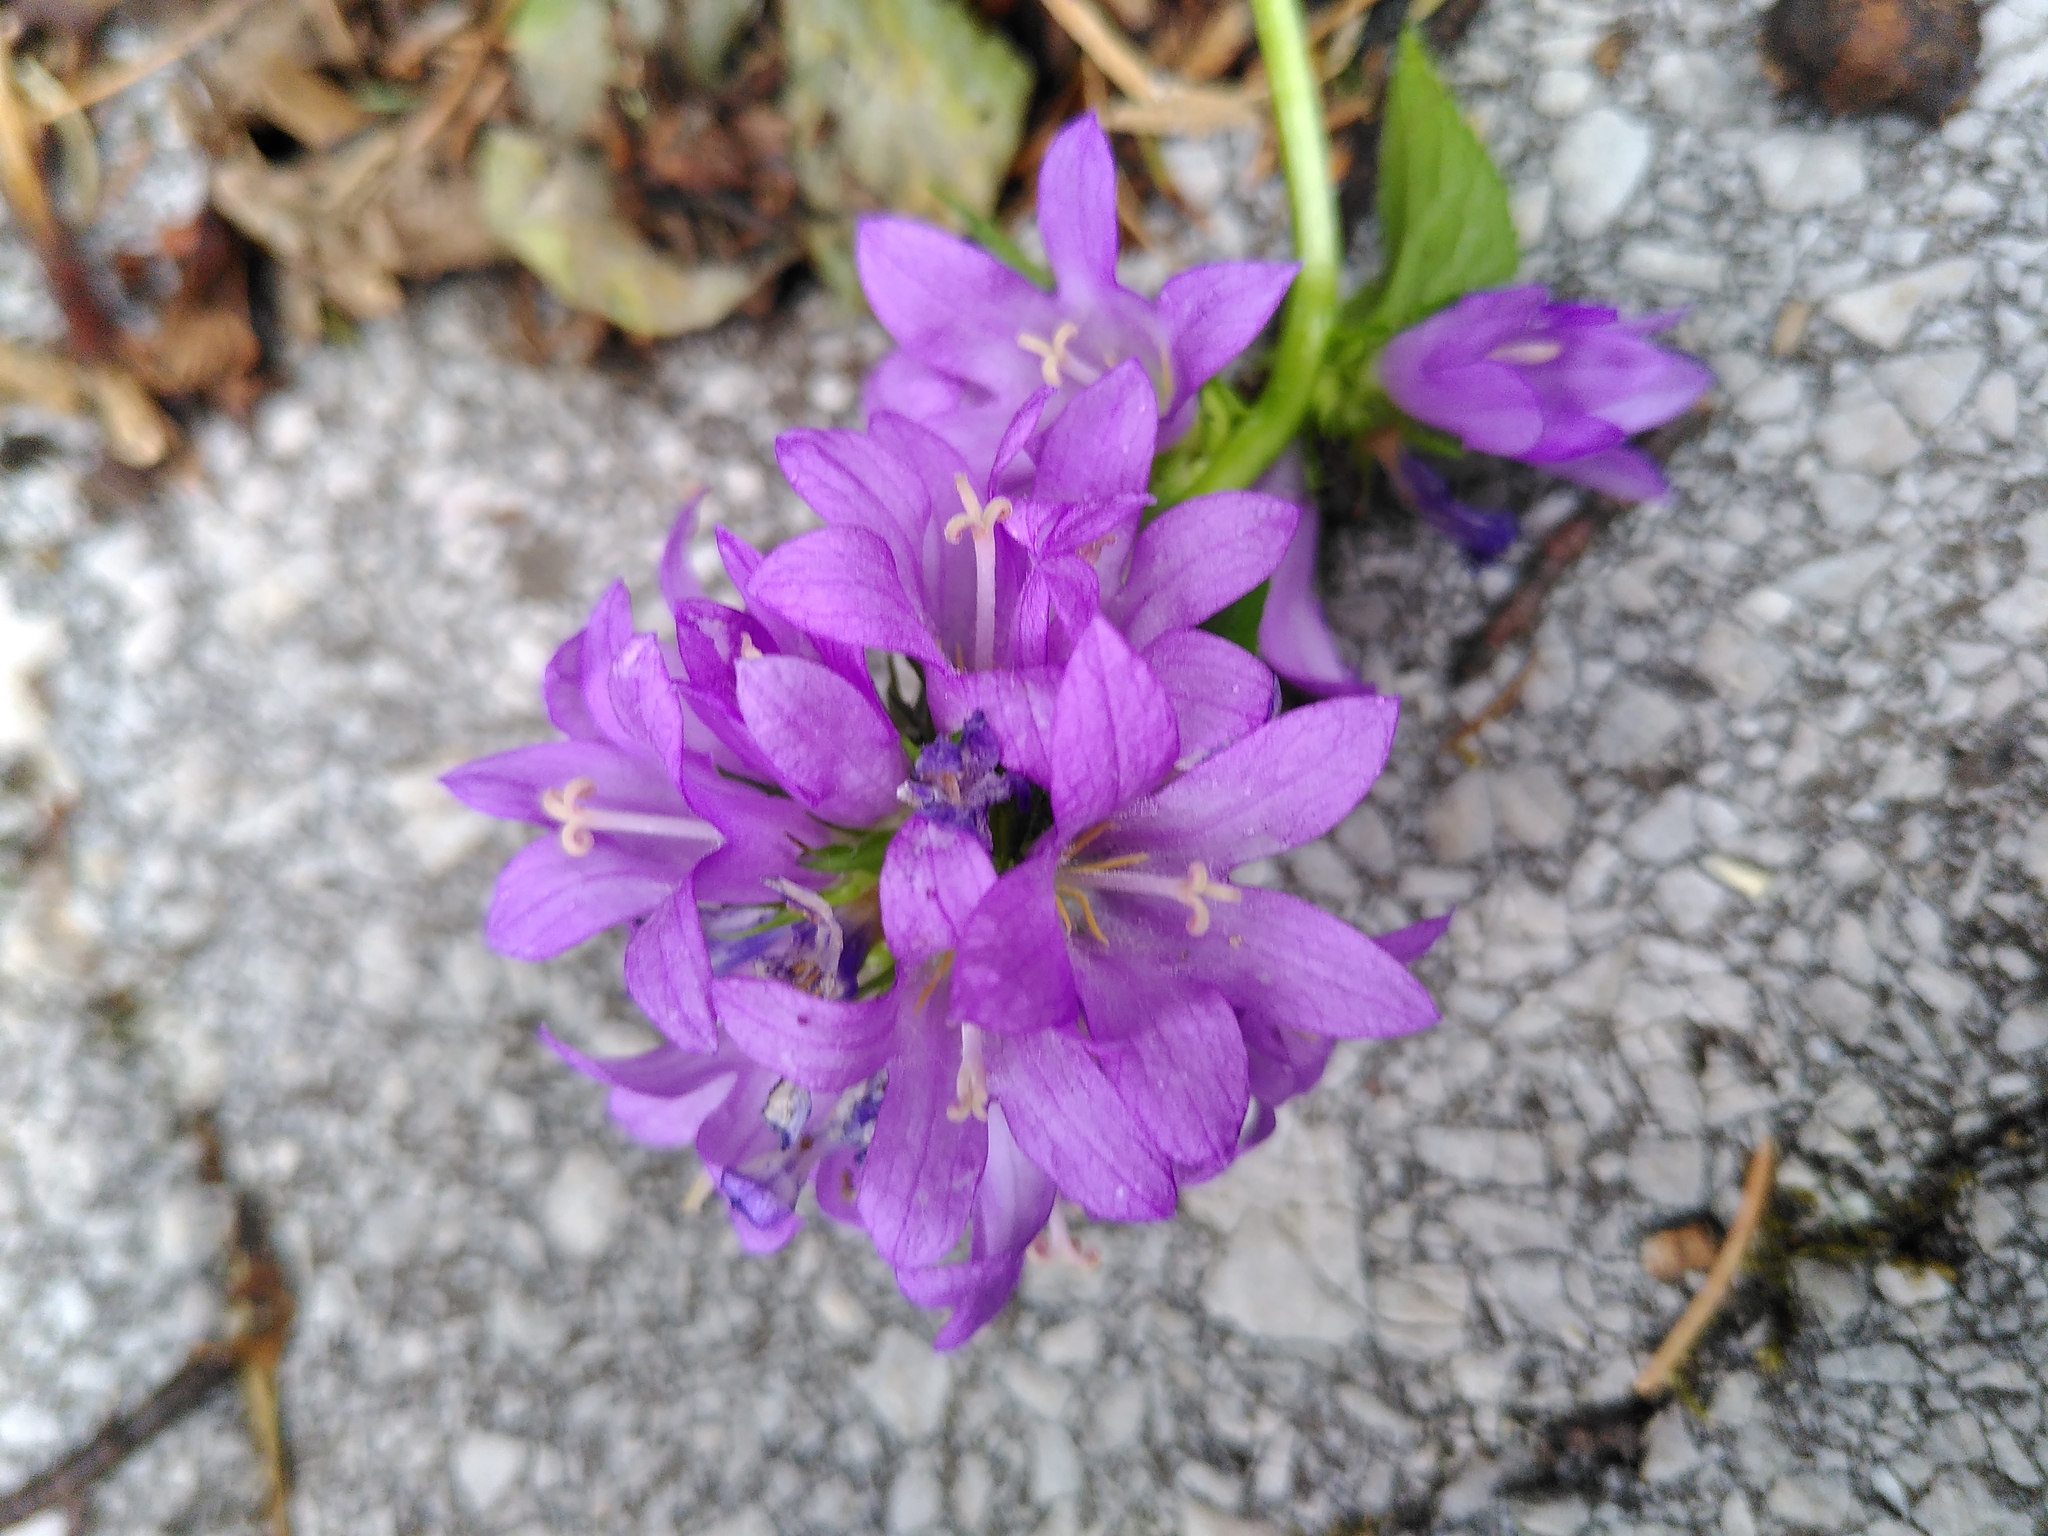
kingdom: Plantae
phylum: Tracheophyta
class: Magnoliopsida
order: Asterales
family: Campanulaceae
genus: Campanula
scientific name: Campanula glomerata
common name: Clustered bellflower
